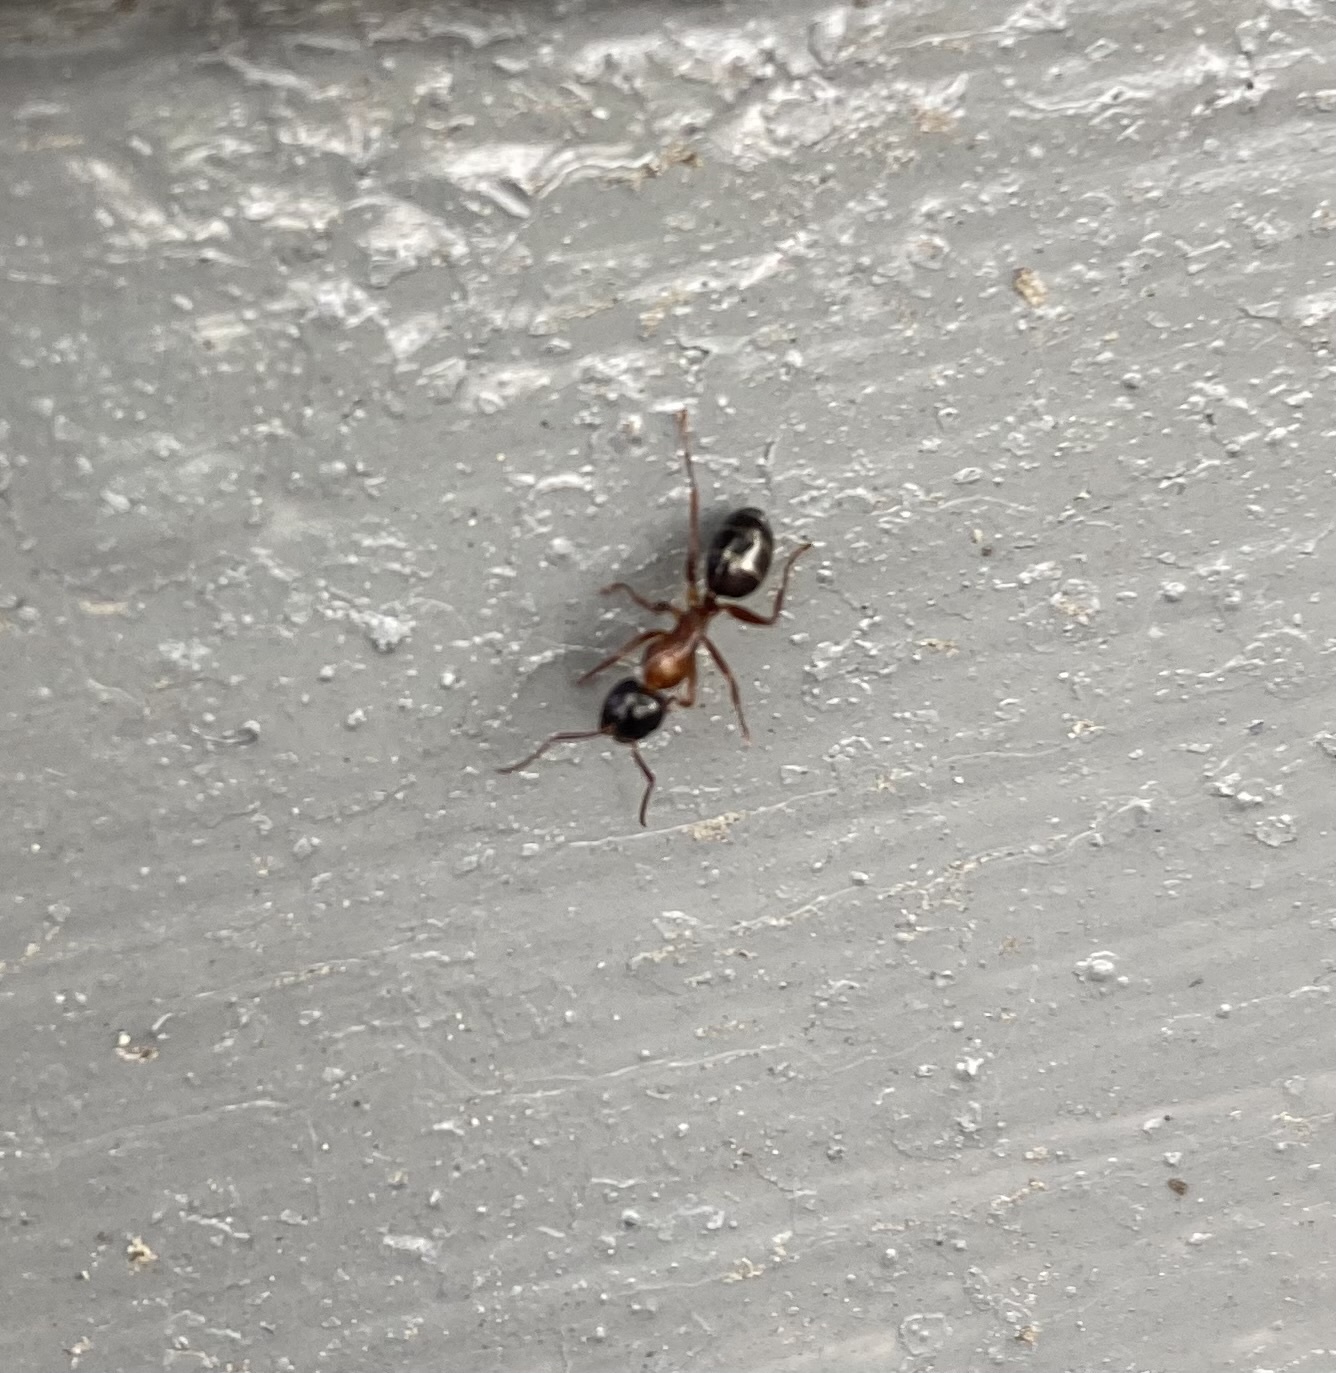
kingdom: Animalia
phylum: Arthropoda
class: Insecta
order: Hymenoptera
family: Formicidae
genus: Camponotus
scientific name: Camponotus
